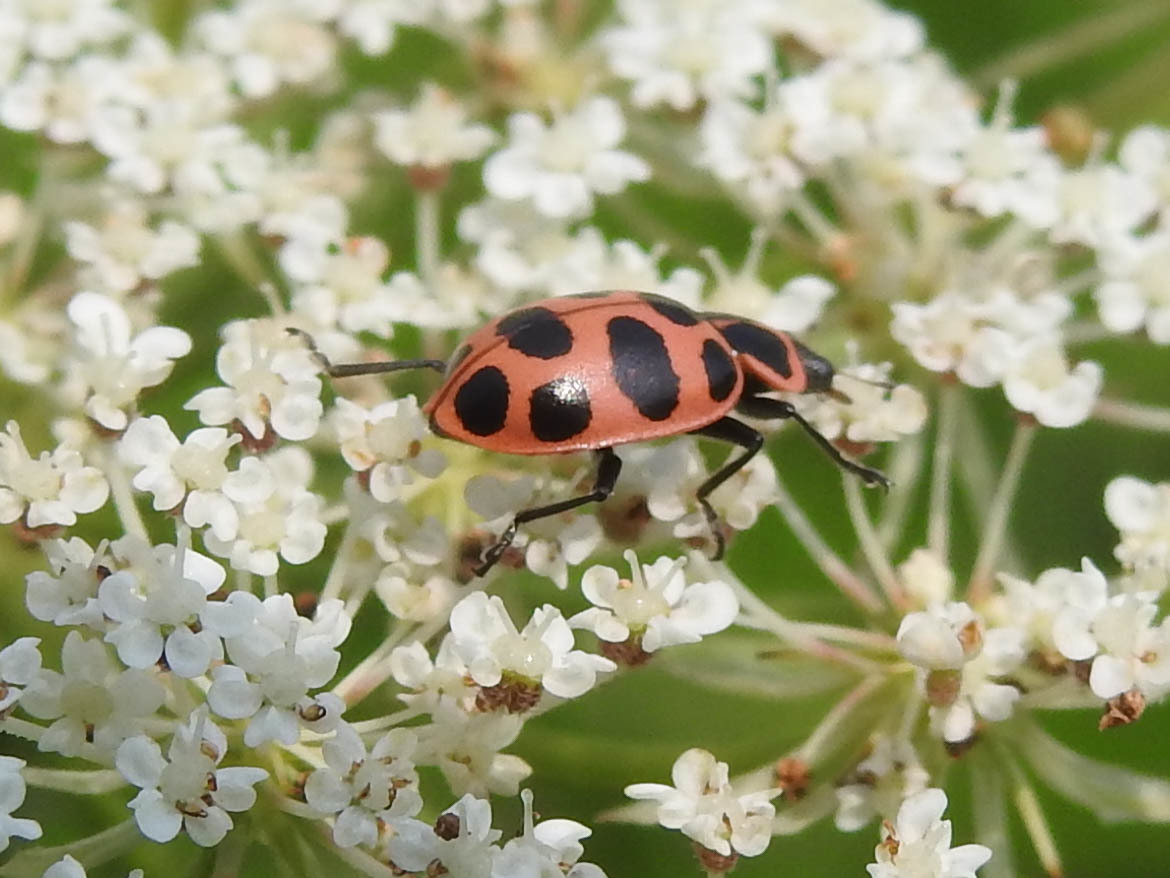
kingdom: Animalia
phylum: Arthropoda
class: Insecta
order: Coleoptera
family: Coccinellidae
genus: Coleomegilla
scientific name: Coleomegilla maculata
